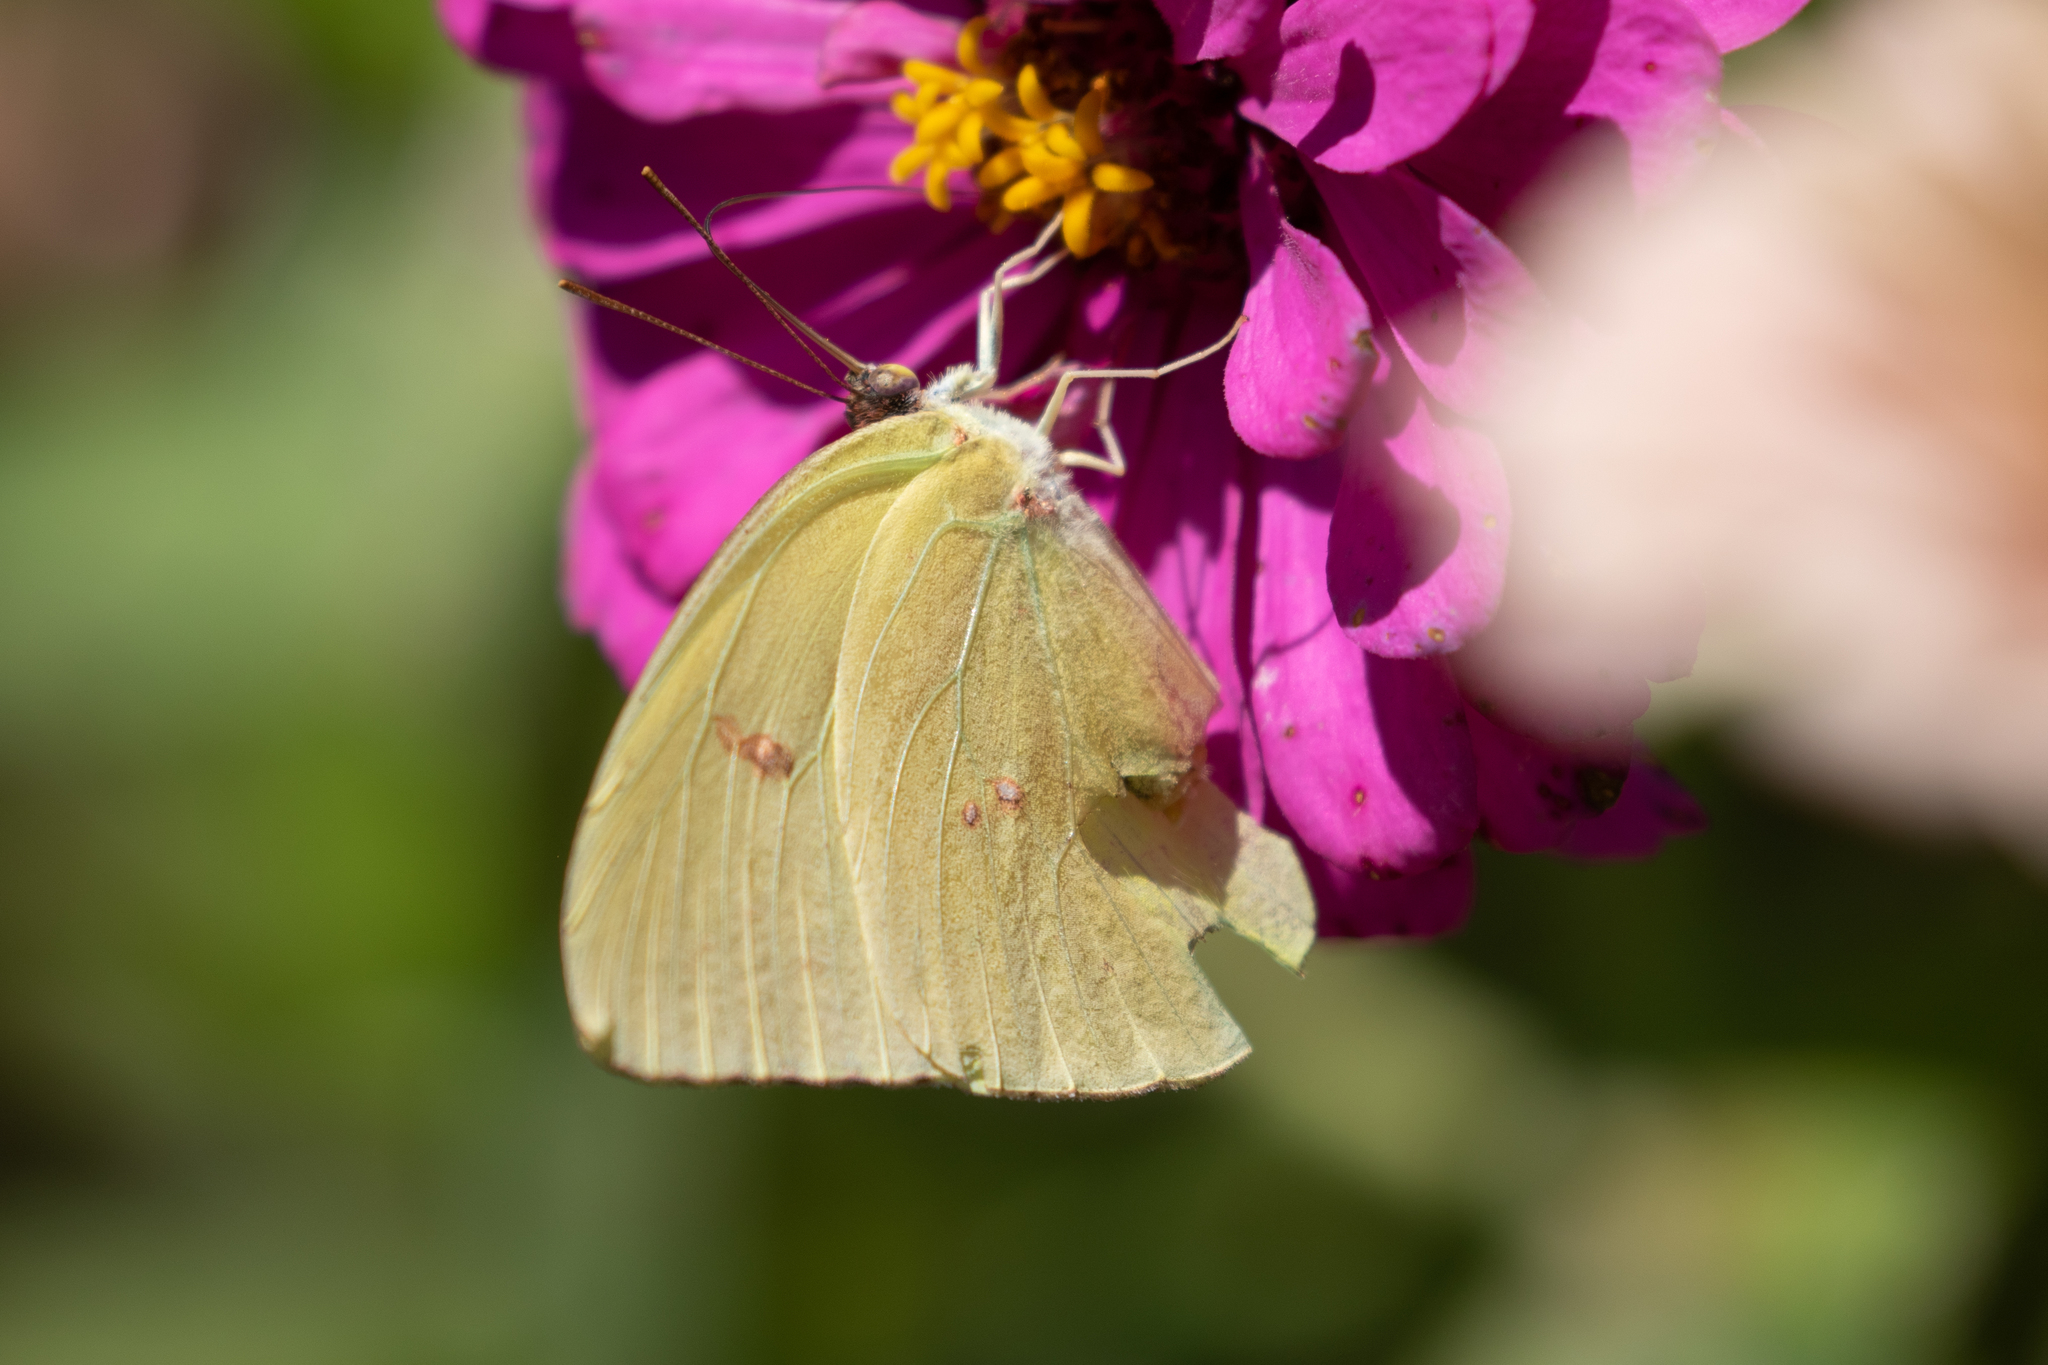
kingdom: Animalia
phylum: Arthropoda
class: Insecta
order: Lepidoptera
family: Pieridae
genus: Phoebis
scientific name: Phoebis sennae
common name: Cloudless sulphur
